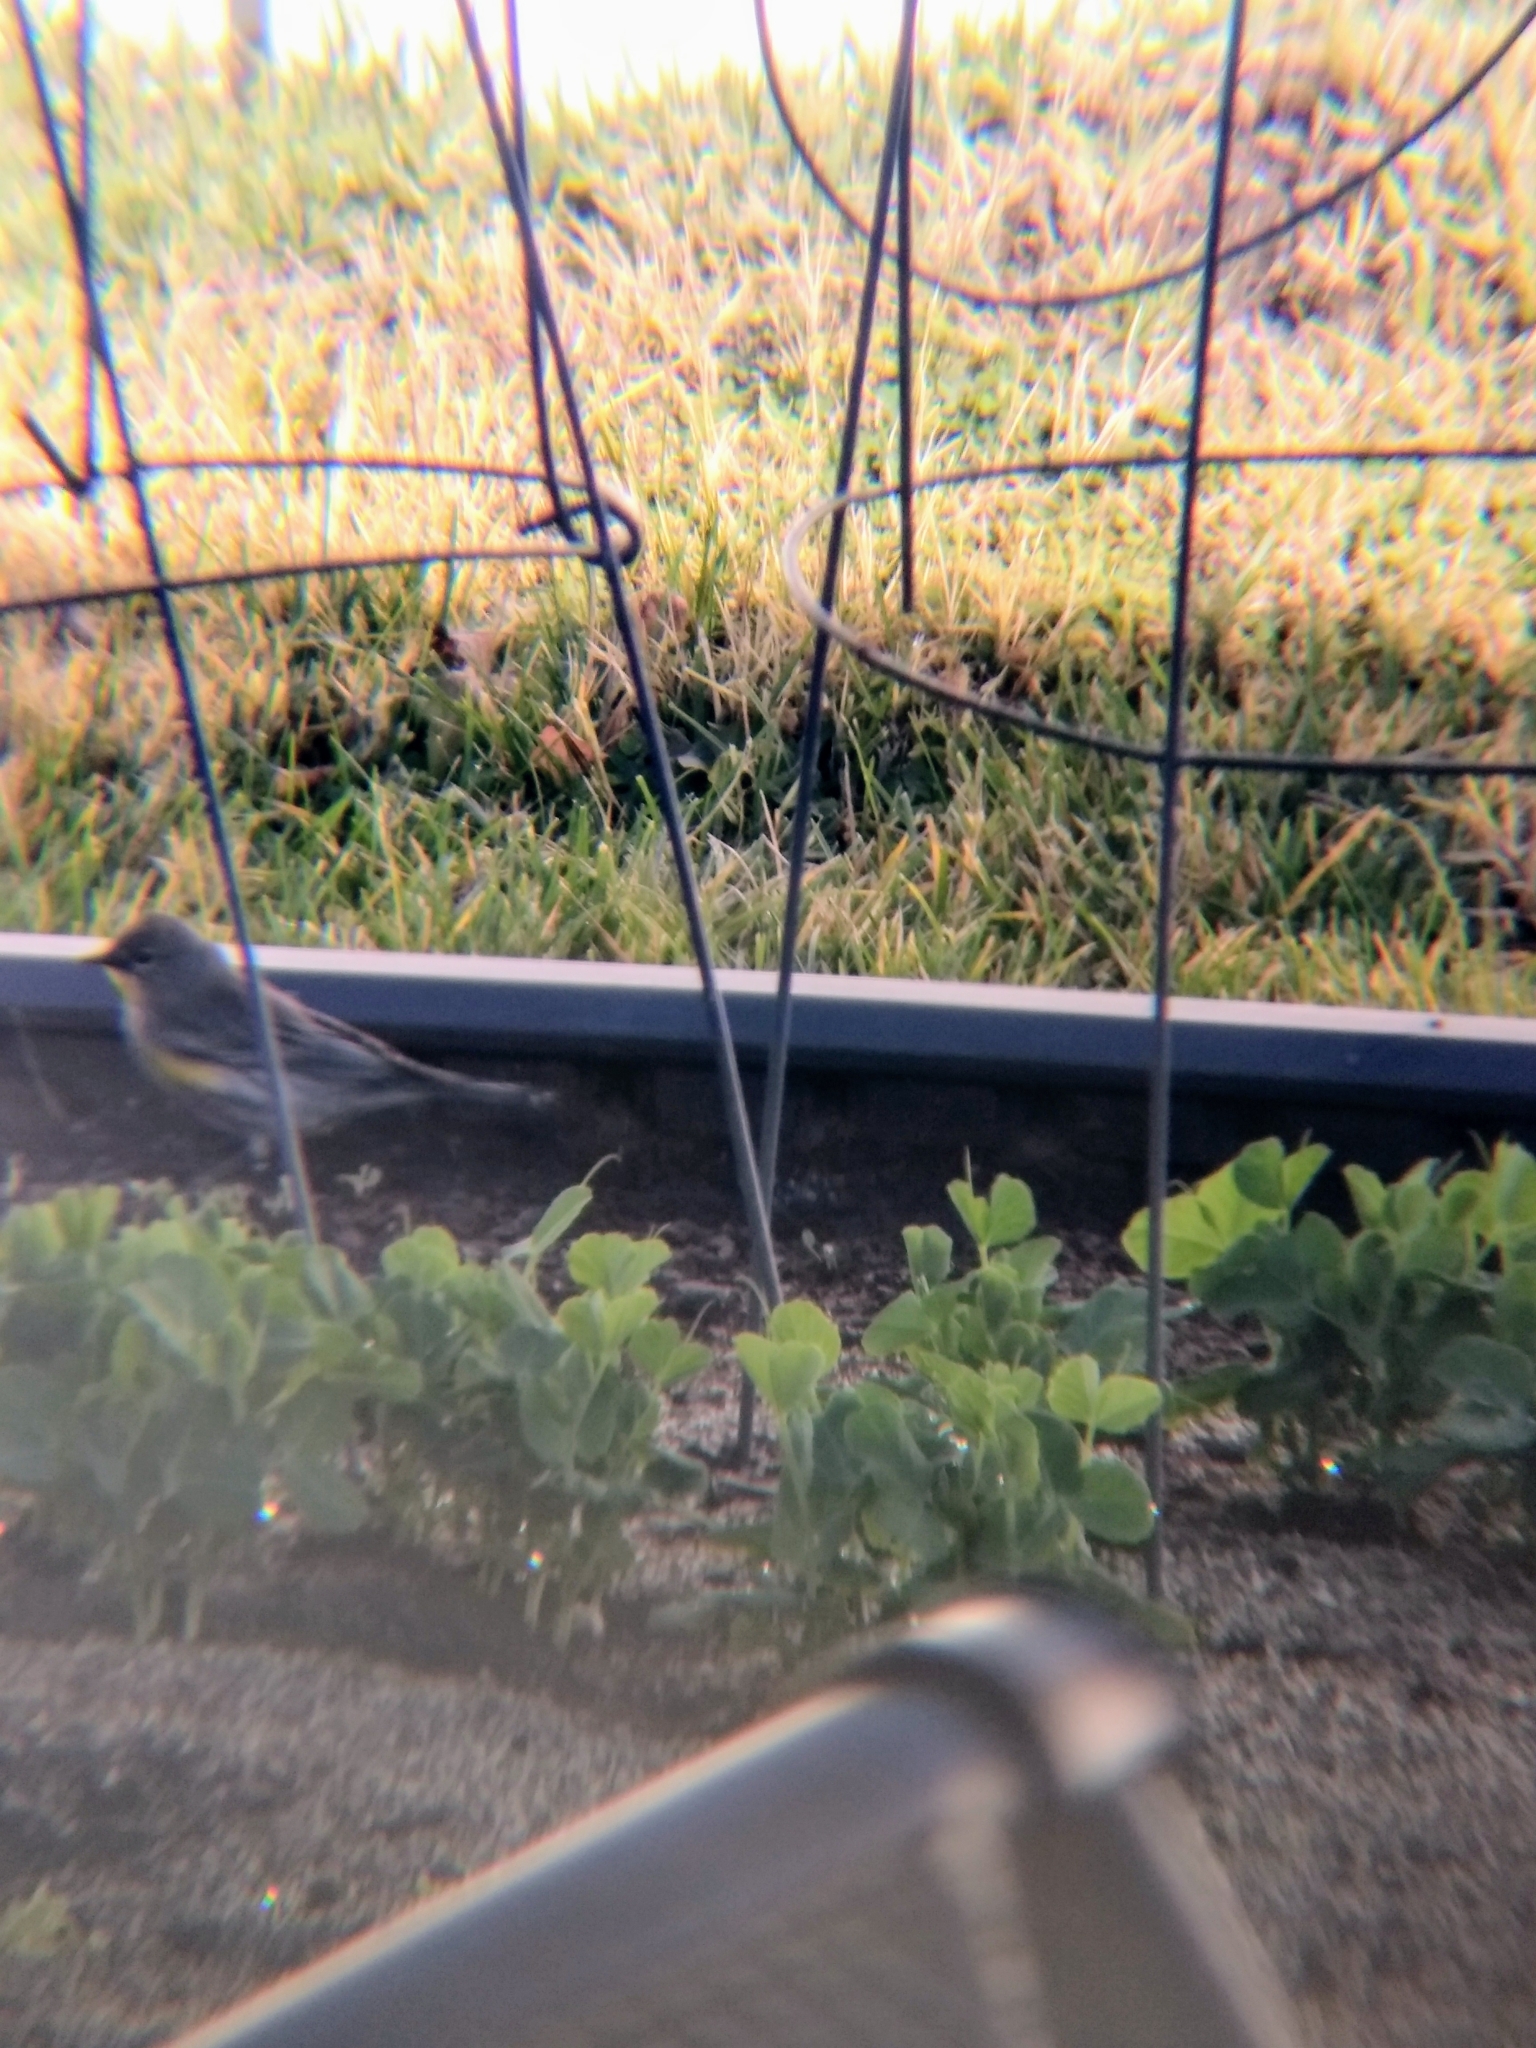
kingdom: Animalia
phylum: Chordata
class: Aves
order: Passeriformes
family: Parulidae
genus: Setophaga
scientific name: Setophaga coronata
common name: Myrtle warbler
